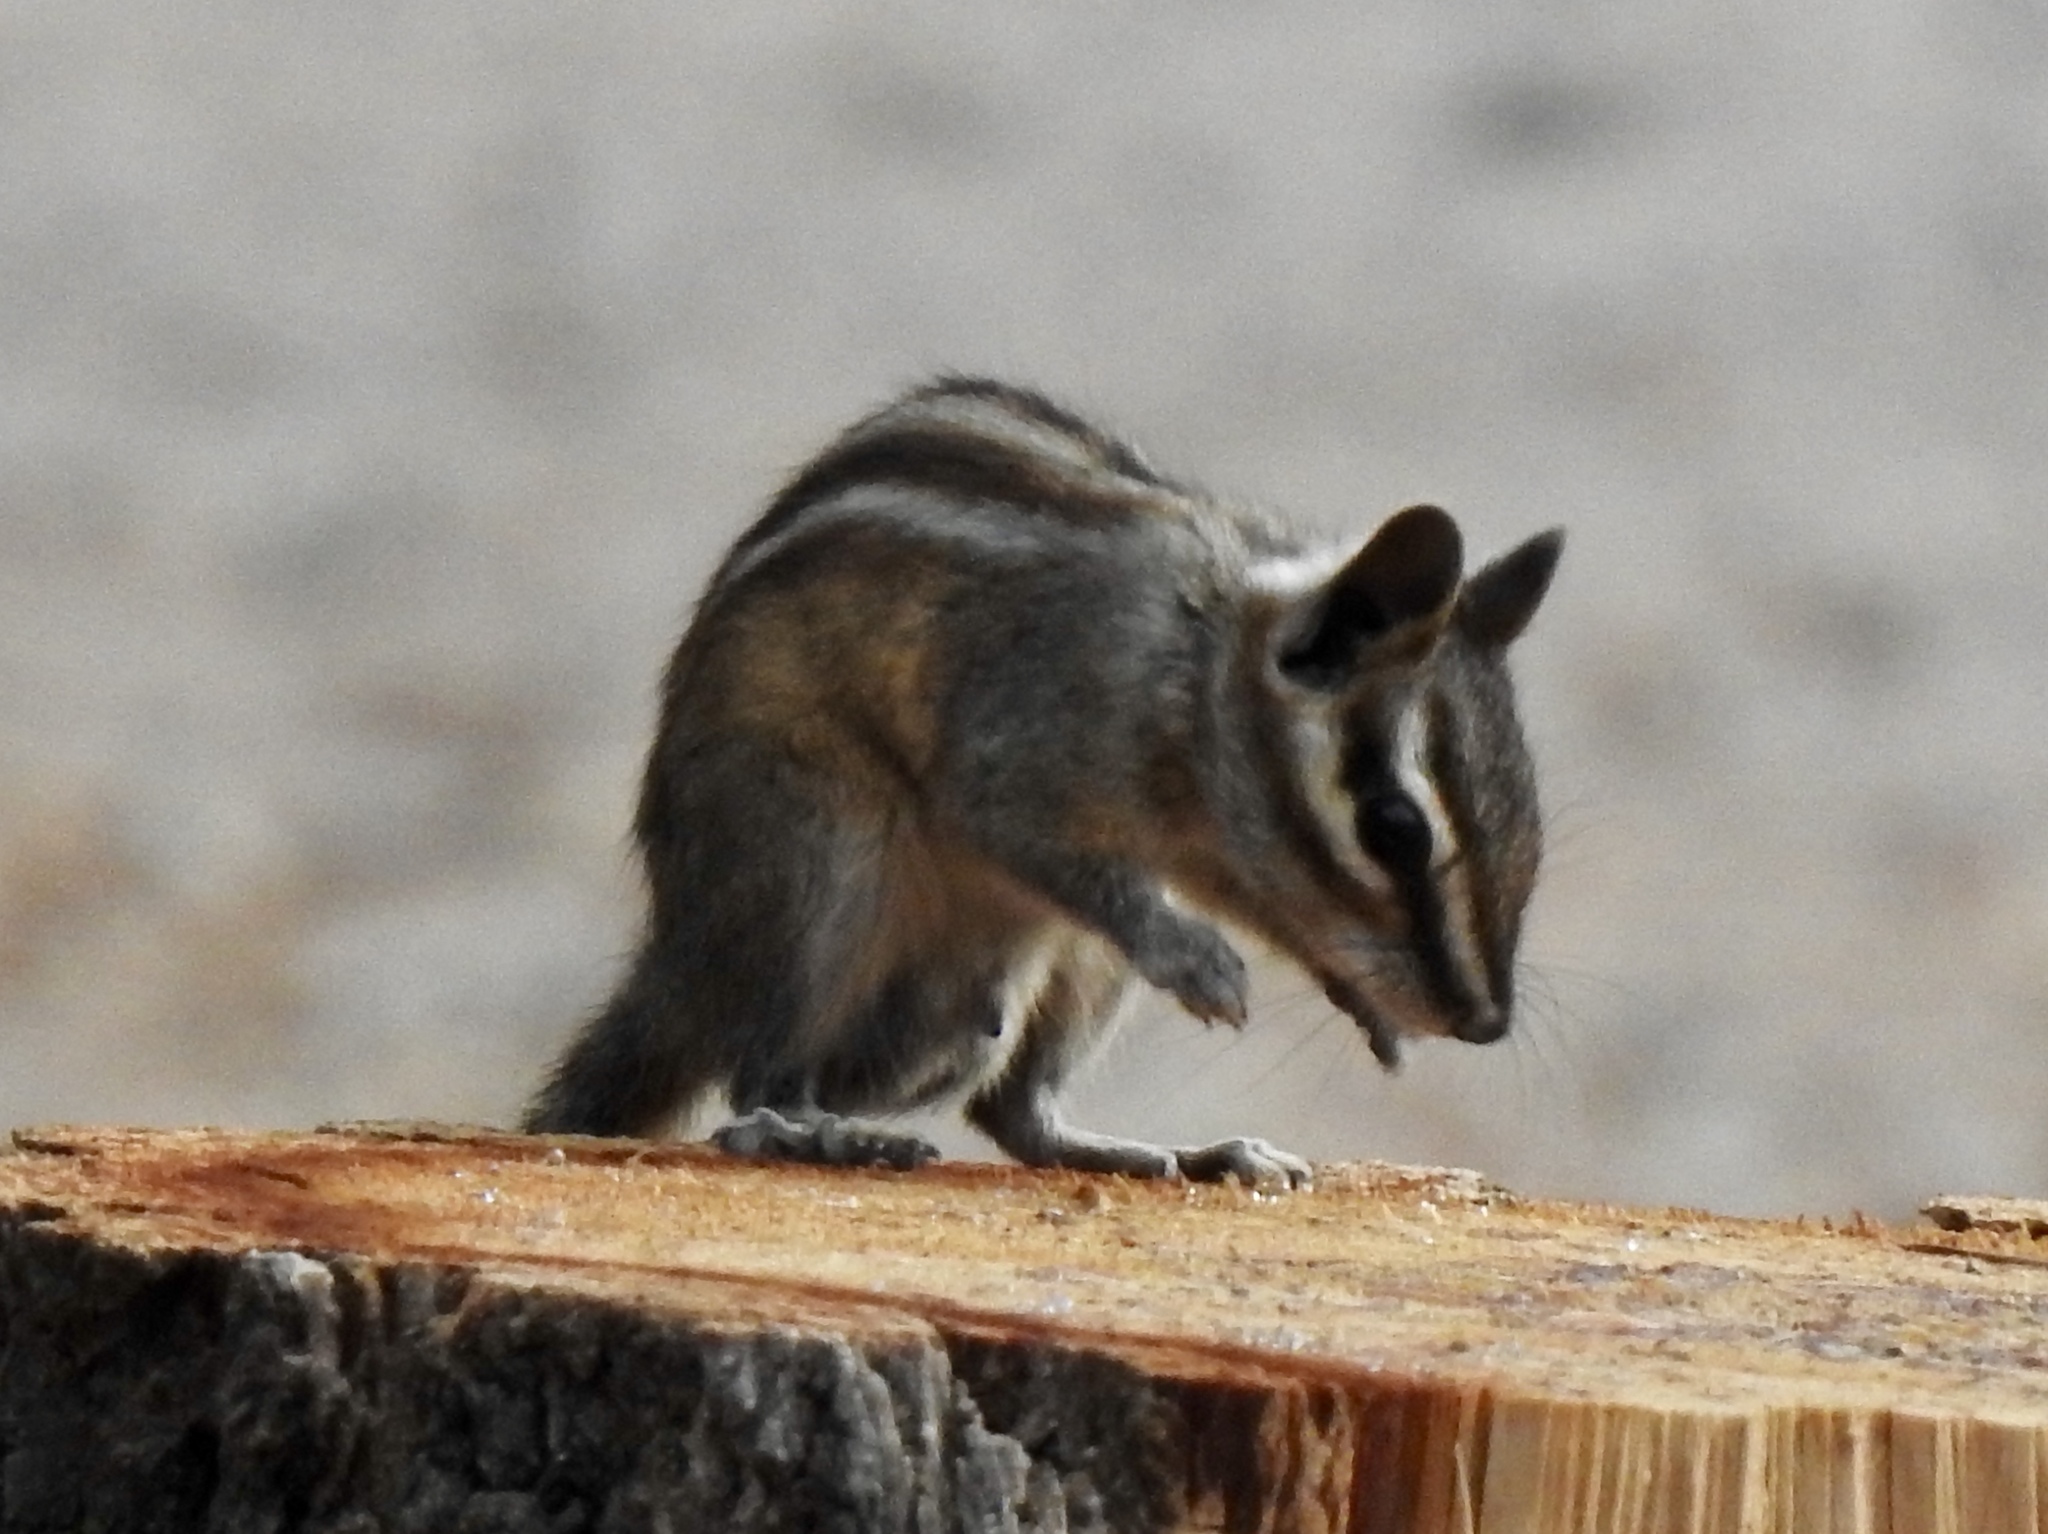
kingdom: Animalia
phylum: Chordata
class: Mammalia
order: Rodentia
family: Sciuridae
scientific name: Sciuridae
